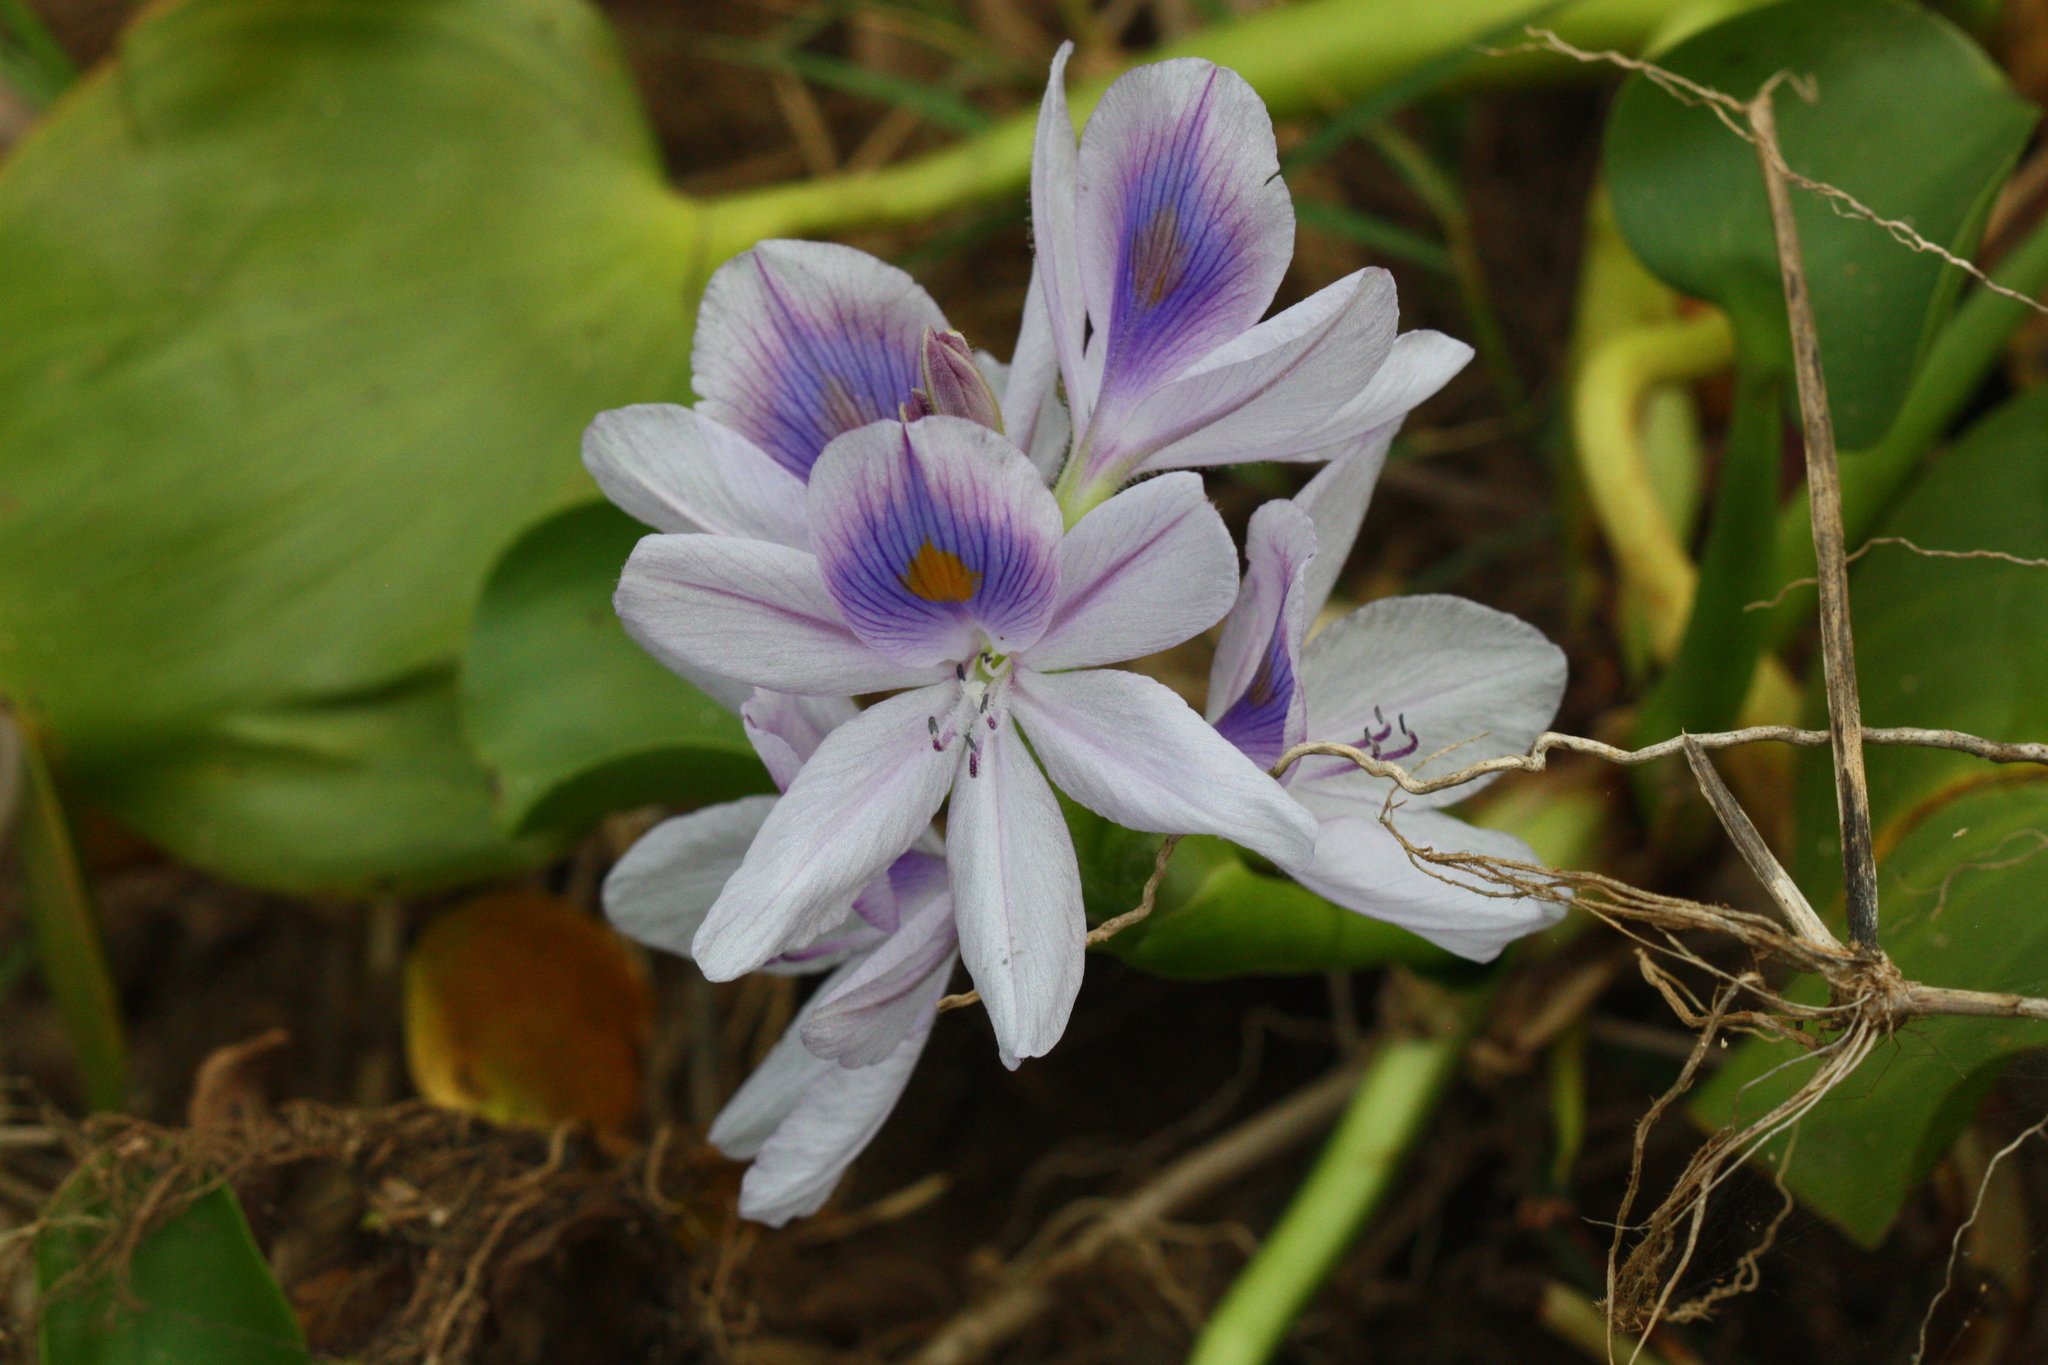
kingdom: Plantae
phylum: Tracheophyta
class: Liliopsida
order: Commelinales
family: Pontederiaceae
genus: Pontederia
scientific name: Pontederia crassipes
